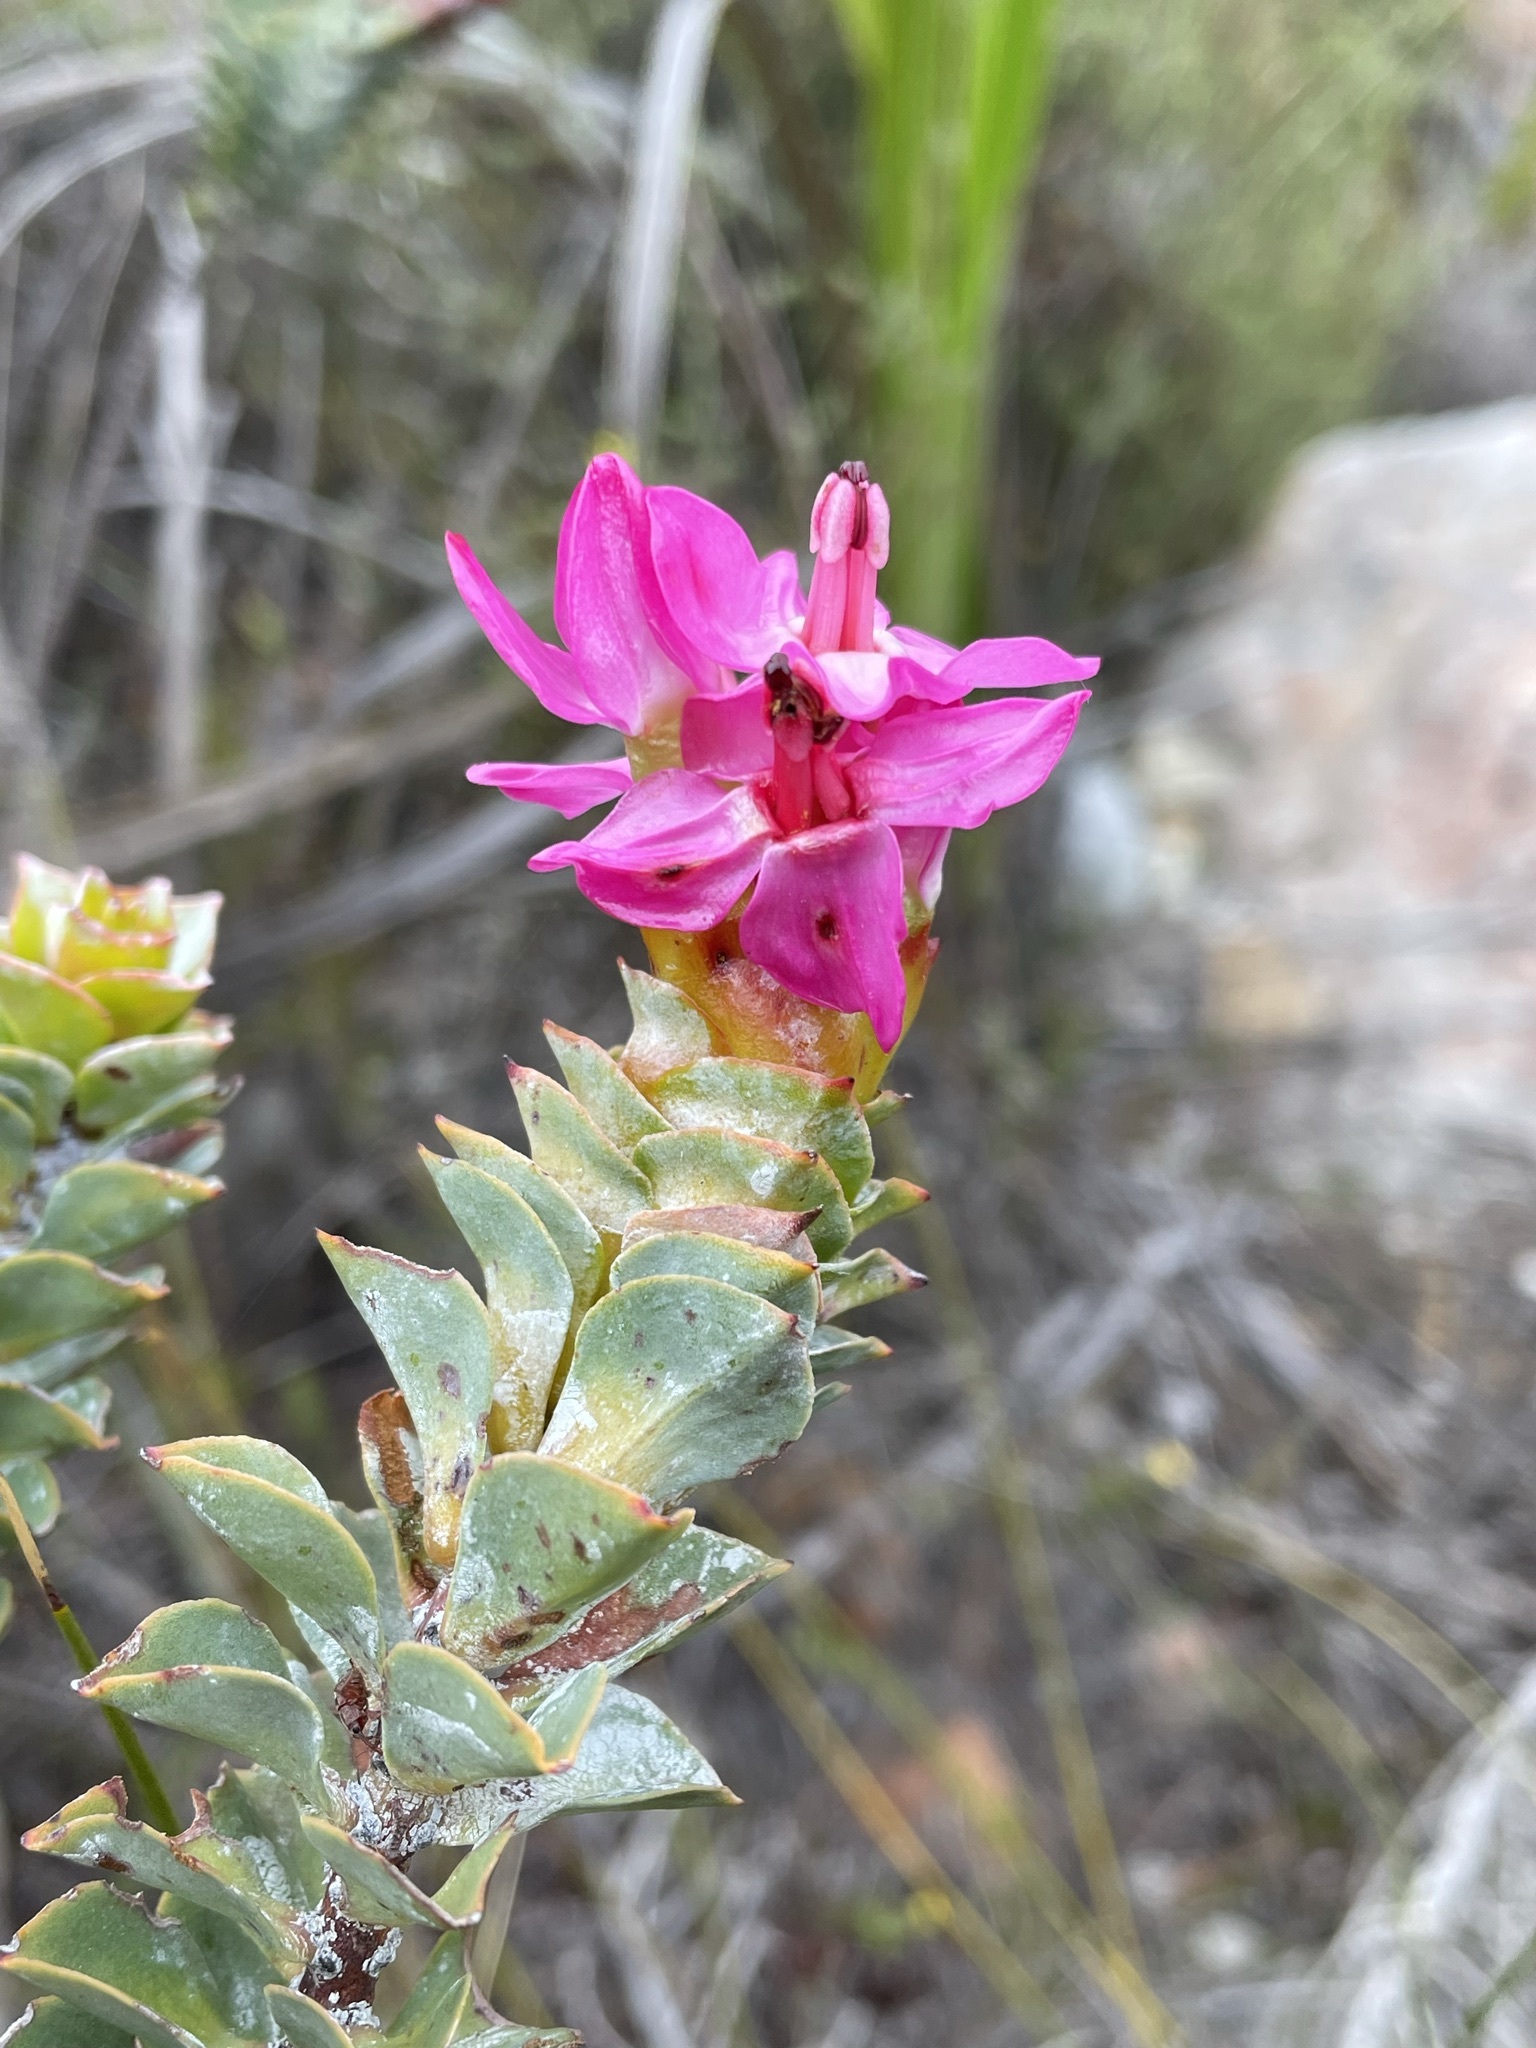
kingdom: Plantae
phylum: Tracheophyta
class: Magnoliopsida
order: Myrtales
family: Penaeaceae
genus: Saltera
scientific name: Saltera sarcocolla
